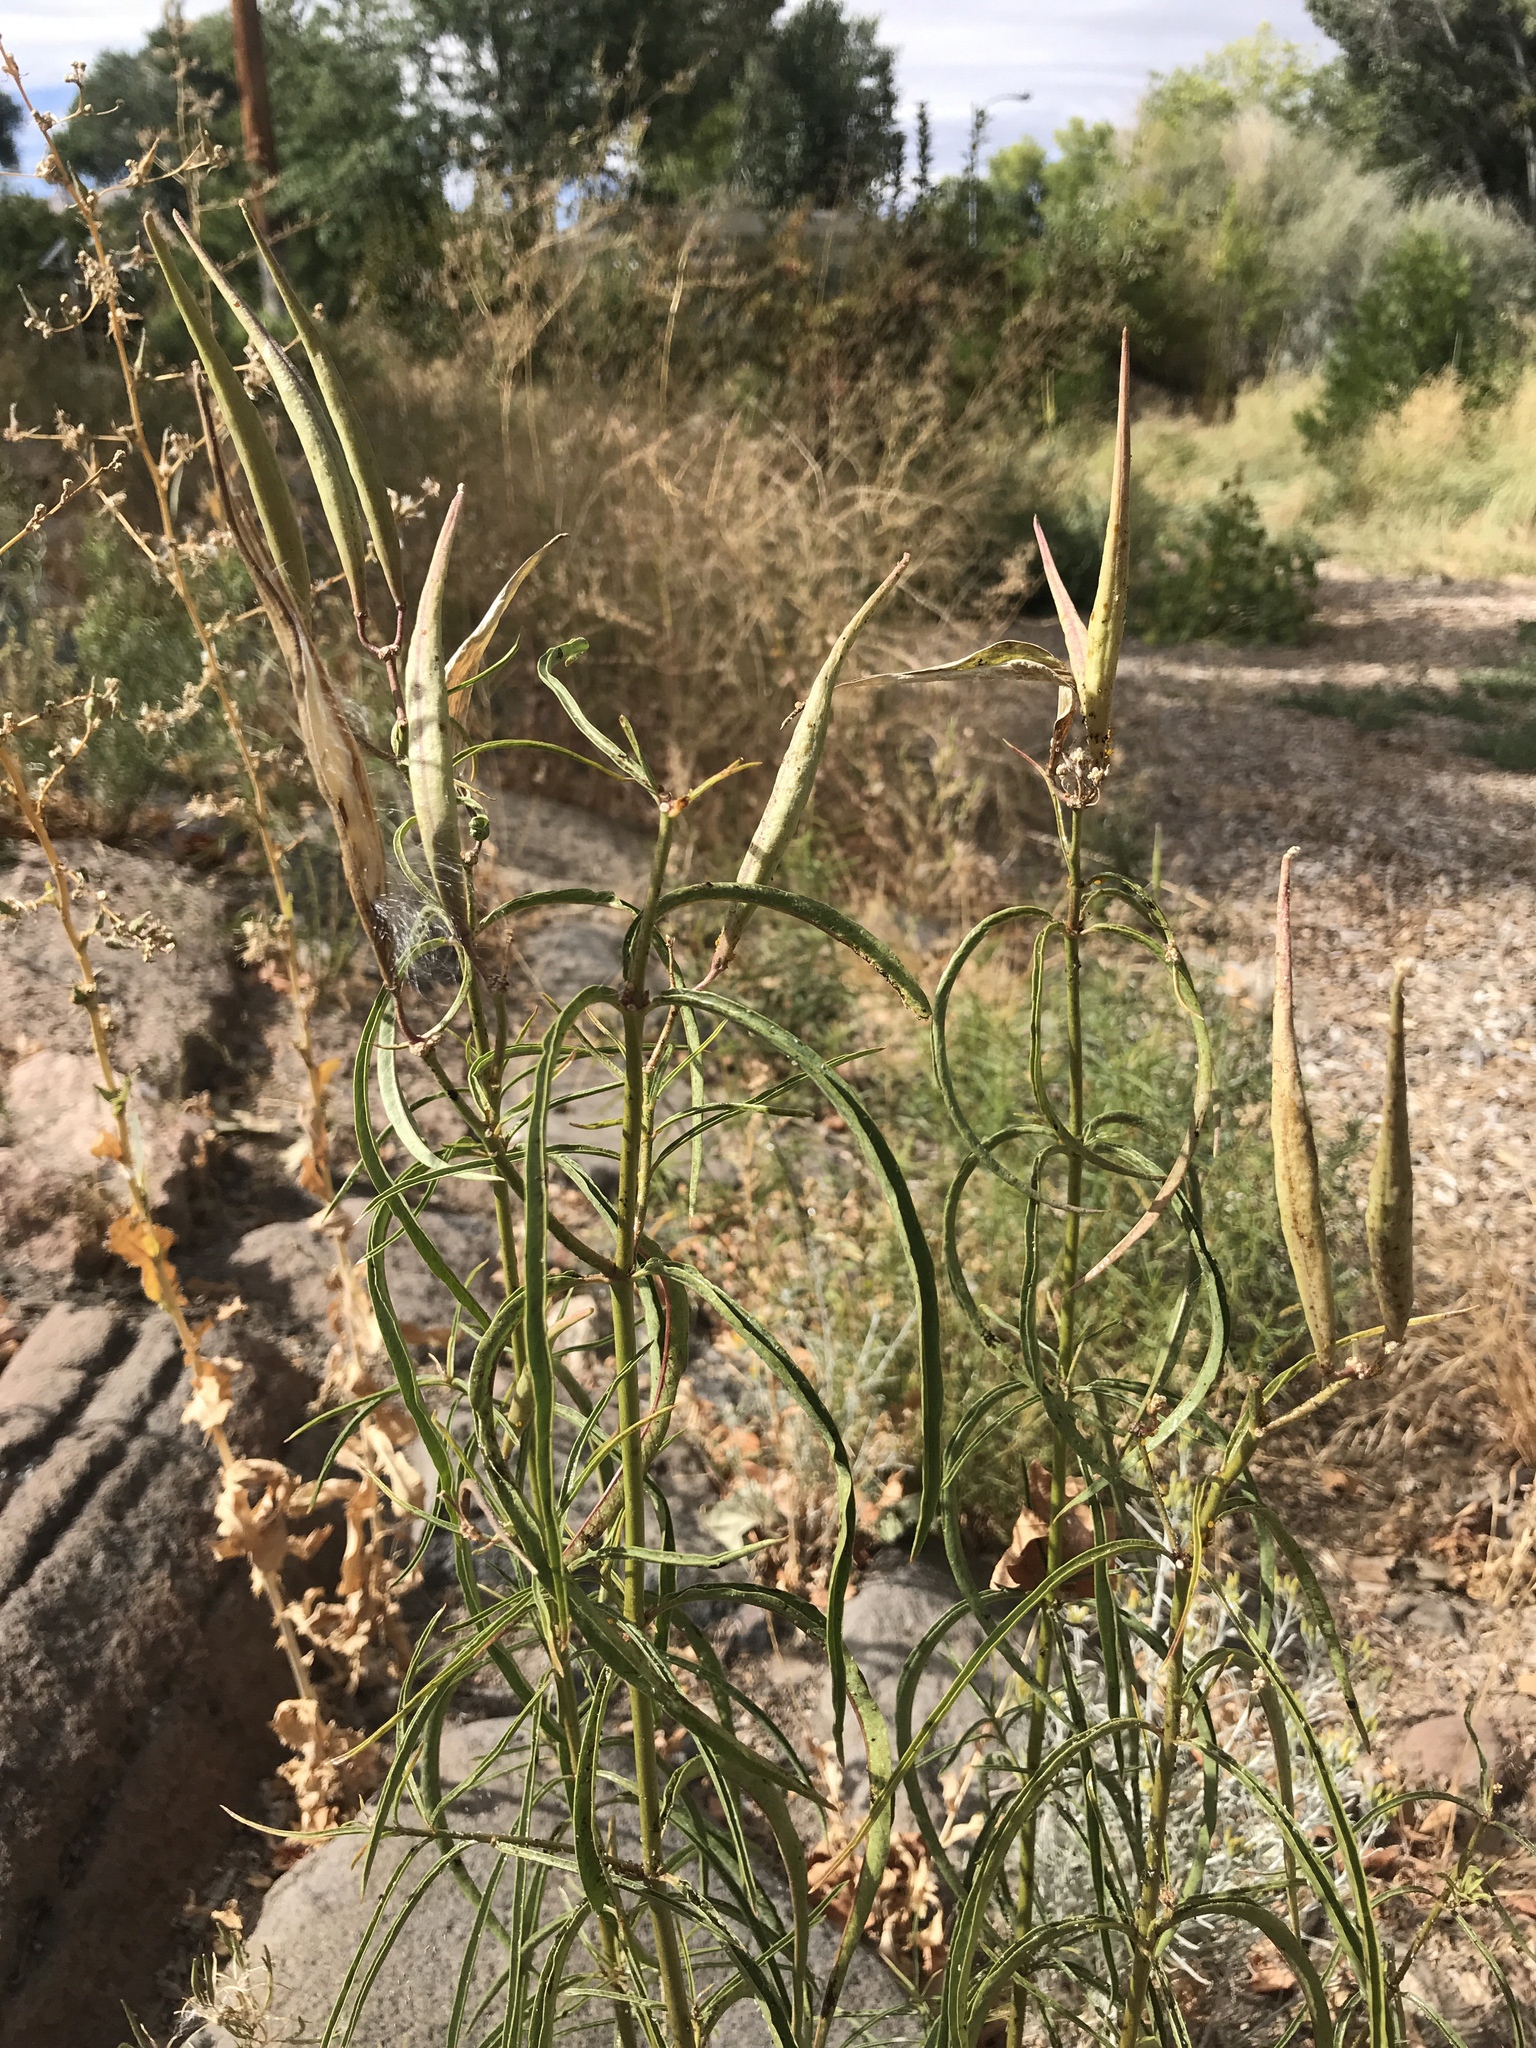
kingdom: Plantae
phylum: Tracheophyta
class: Magnoliopsida
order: Gentianales
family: Apocynaceae
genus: Asclepias
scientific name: Asclepias fascicularis
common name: Mexican milkweed
